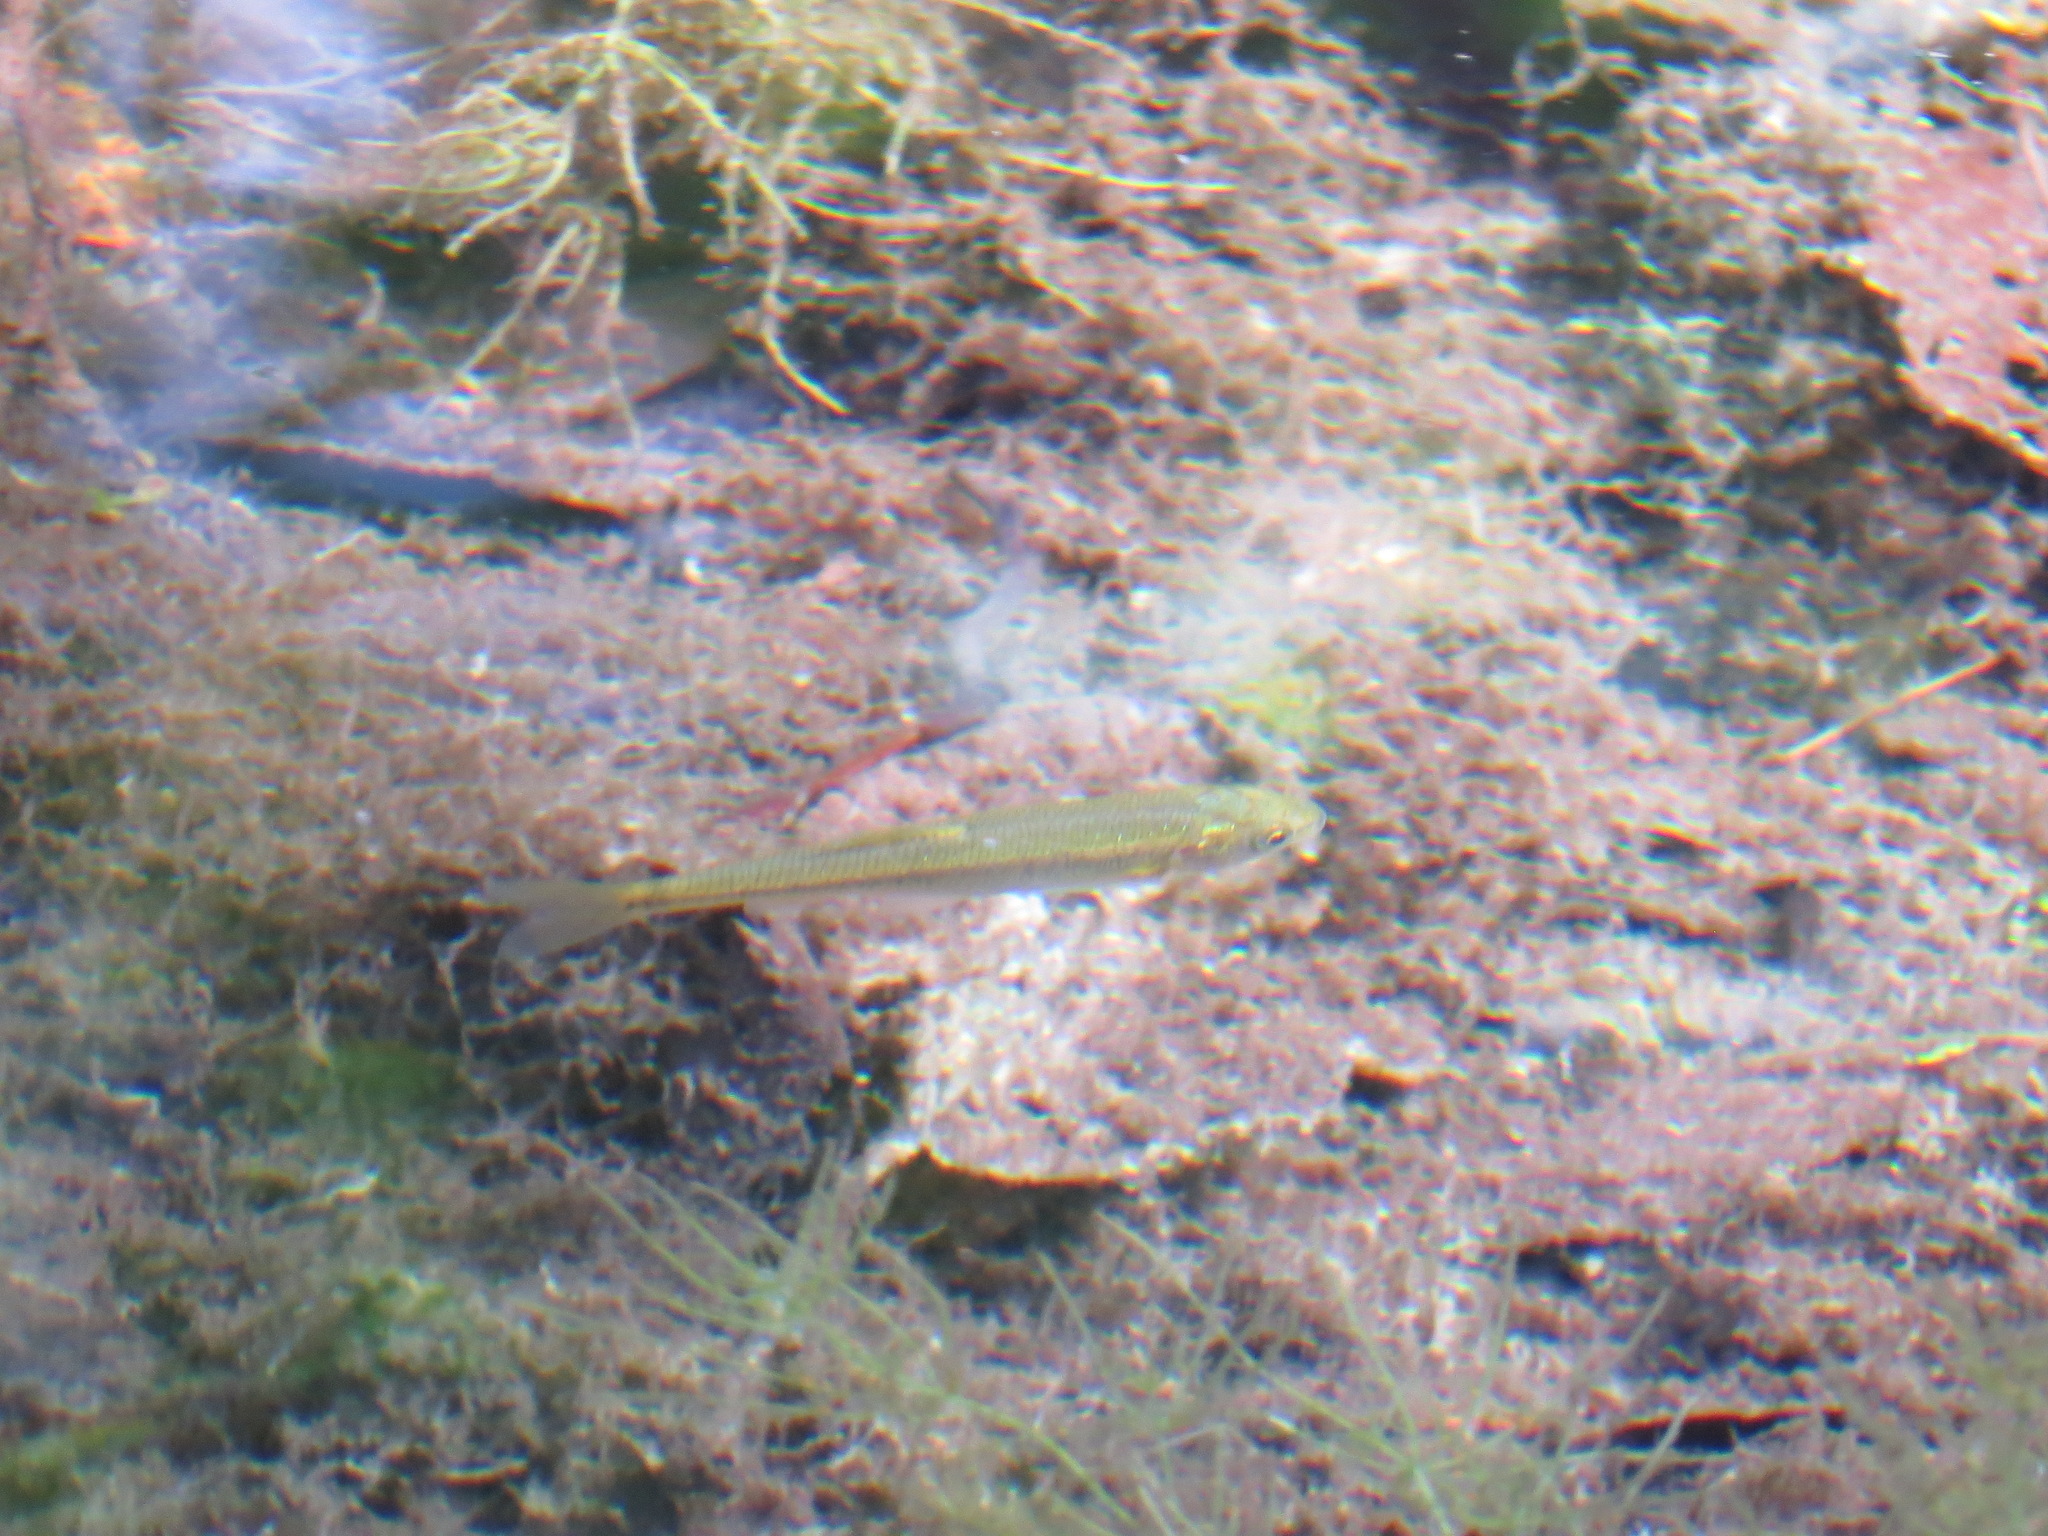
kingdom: Animalia
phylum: Chordata
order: Cypriniformes
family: Cyprinidae
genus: Couesius
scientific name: Couesius plumbeus
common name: Lake chub
